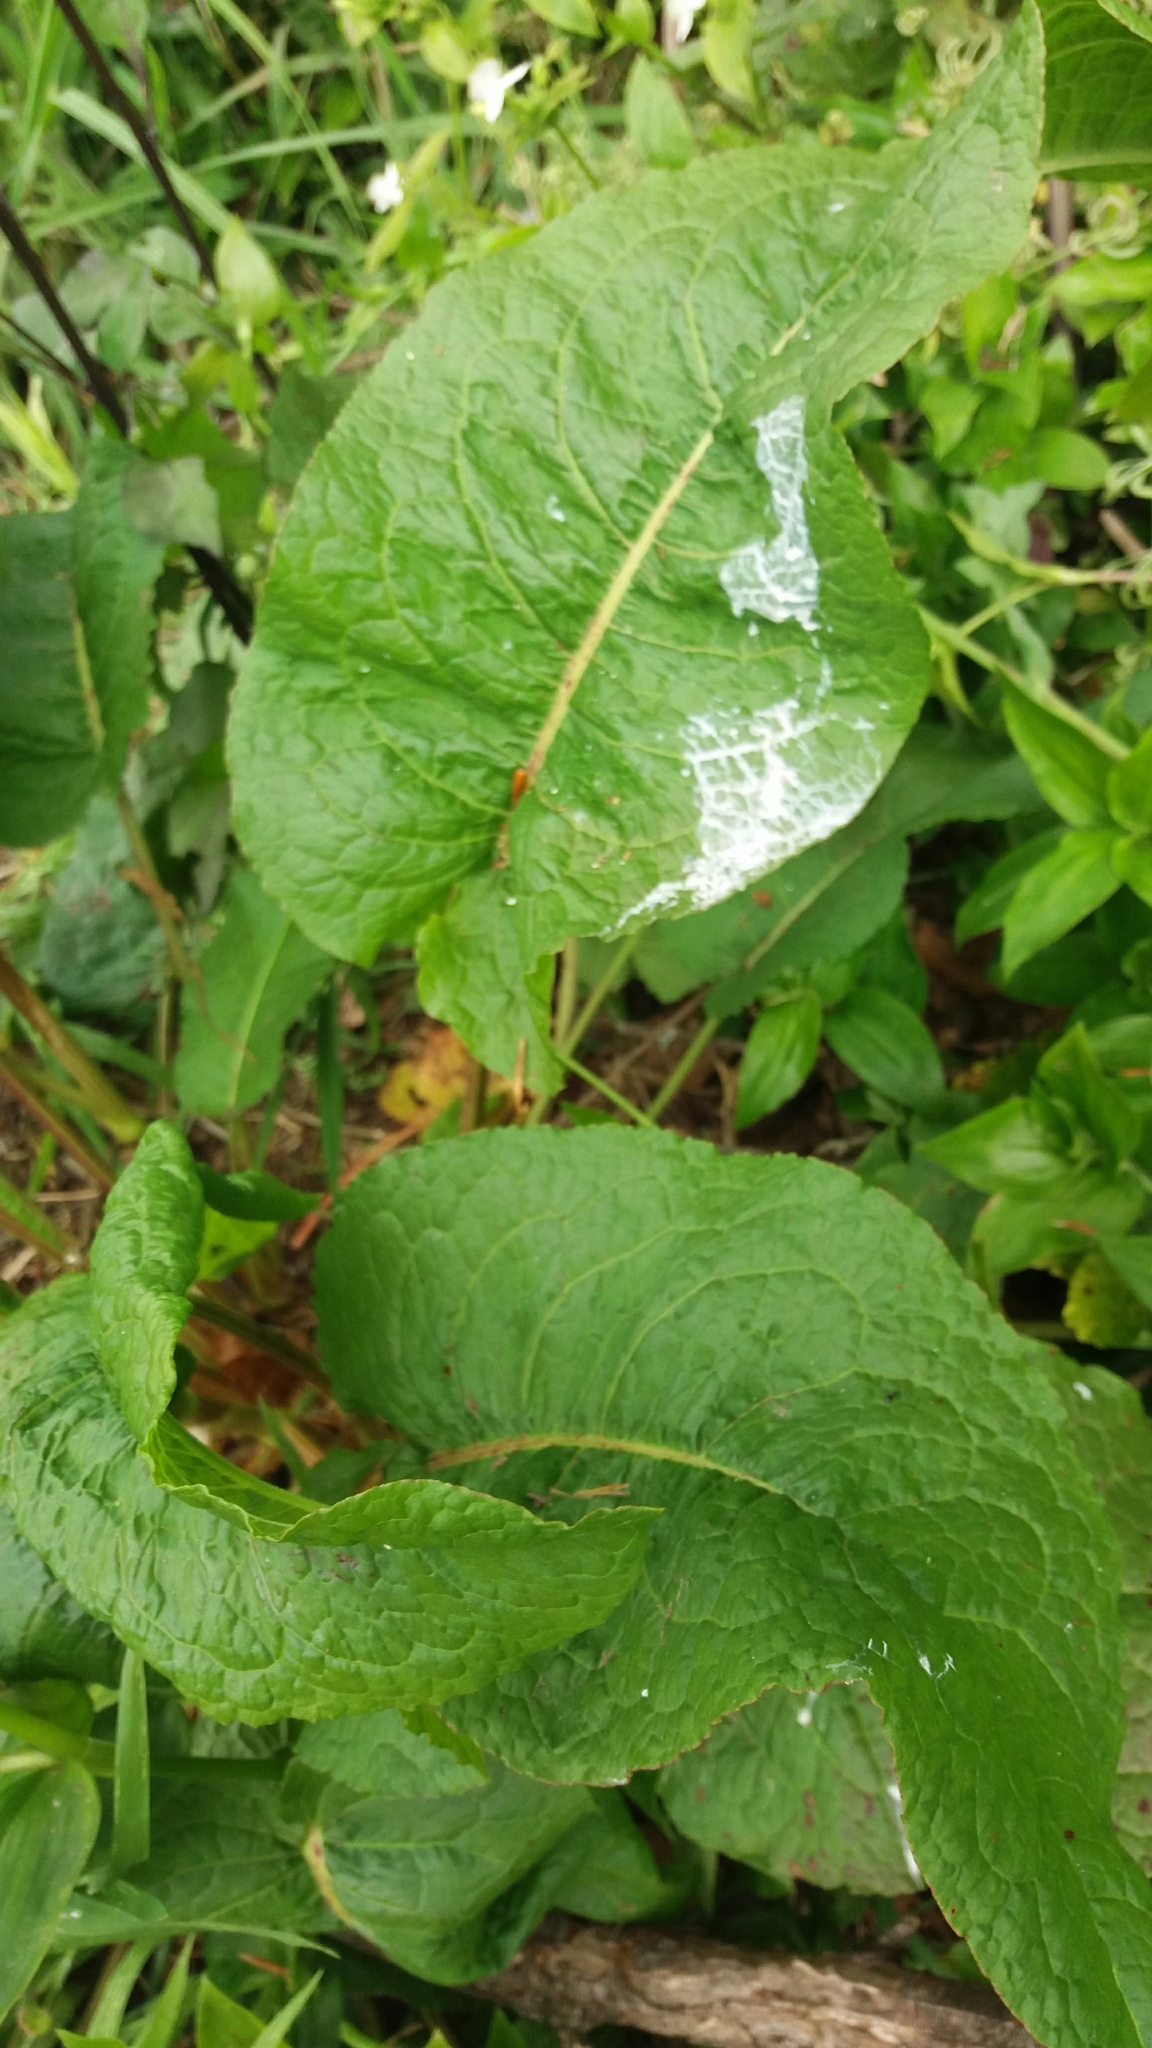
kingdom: Plantae
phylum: Tracheophyta
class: Magnoliopsida
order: Caryophyllales
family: Polygonaceae
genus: Rumex
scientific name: Rumex obtusifolius
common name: Bitter dock
